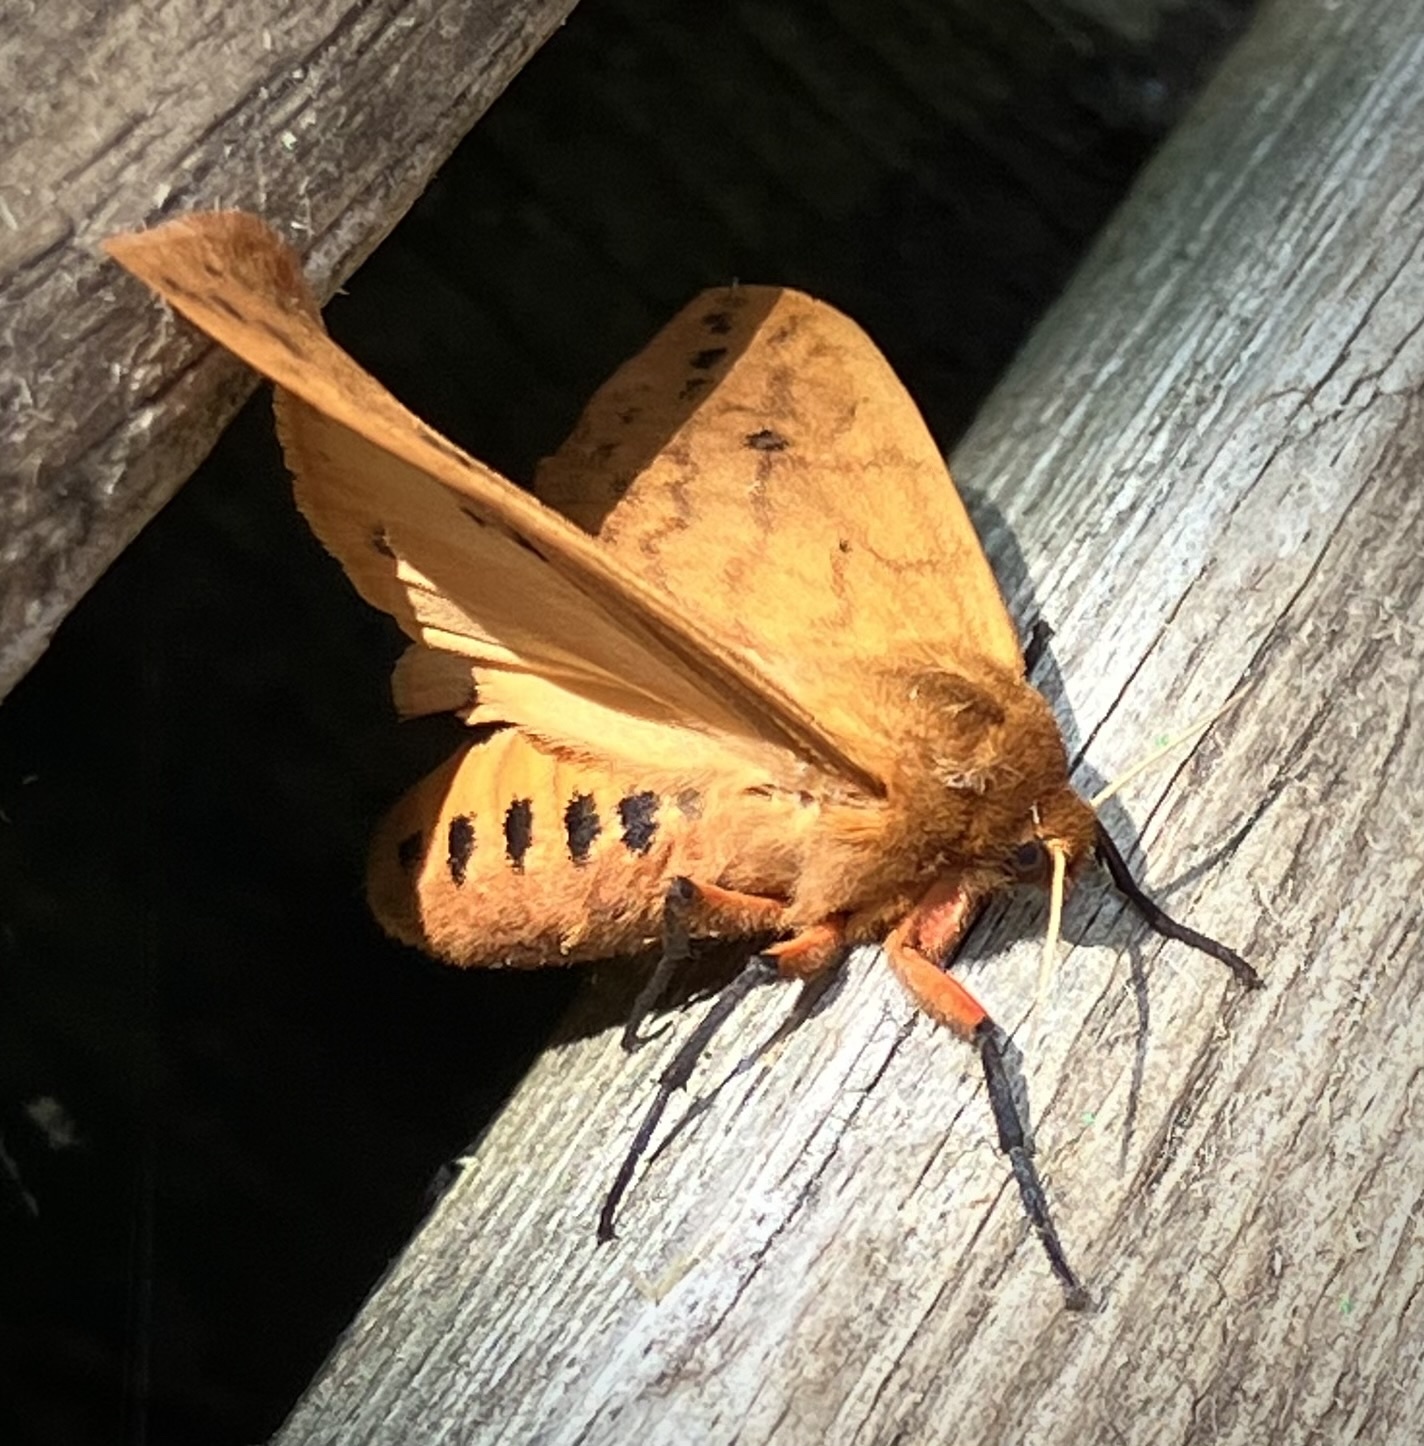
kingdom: Animalia
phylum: Arthropoda
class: Insecta
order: Lepidoptera
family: Erebidae
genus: Pyrrharctia
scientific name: Pyrrharctia isabella
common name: Isabella tiger moth
